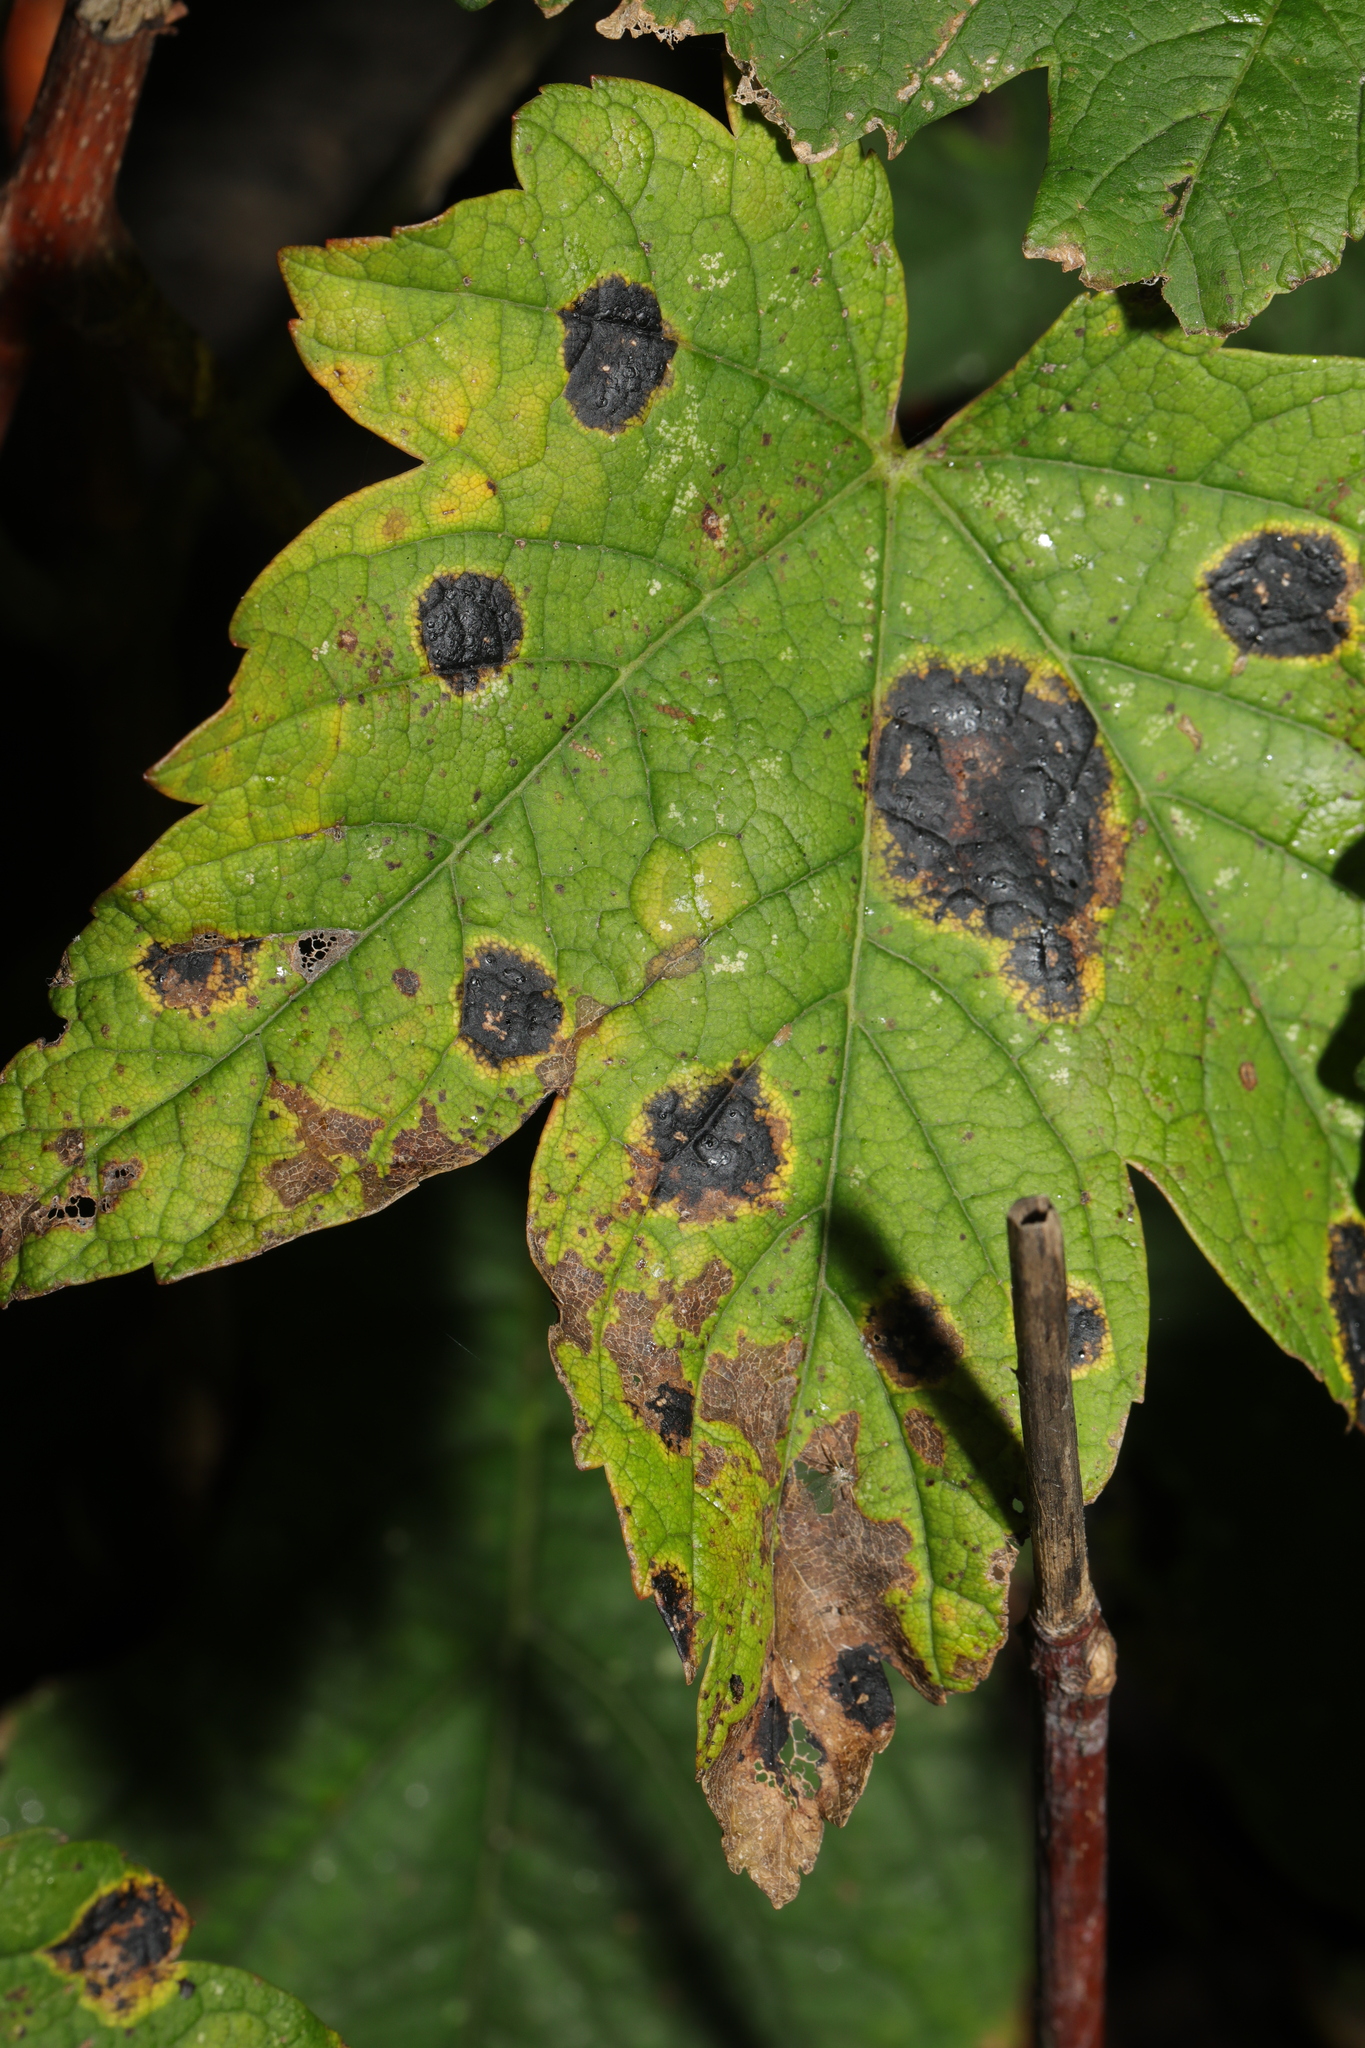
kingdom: Fungi
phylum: Ascomycota
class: Leotiomycetes
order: Rhytismatales
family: Rhytismataceae
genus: Rhytisma
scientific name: Rhytisma acerinum
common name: European tar spot
